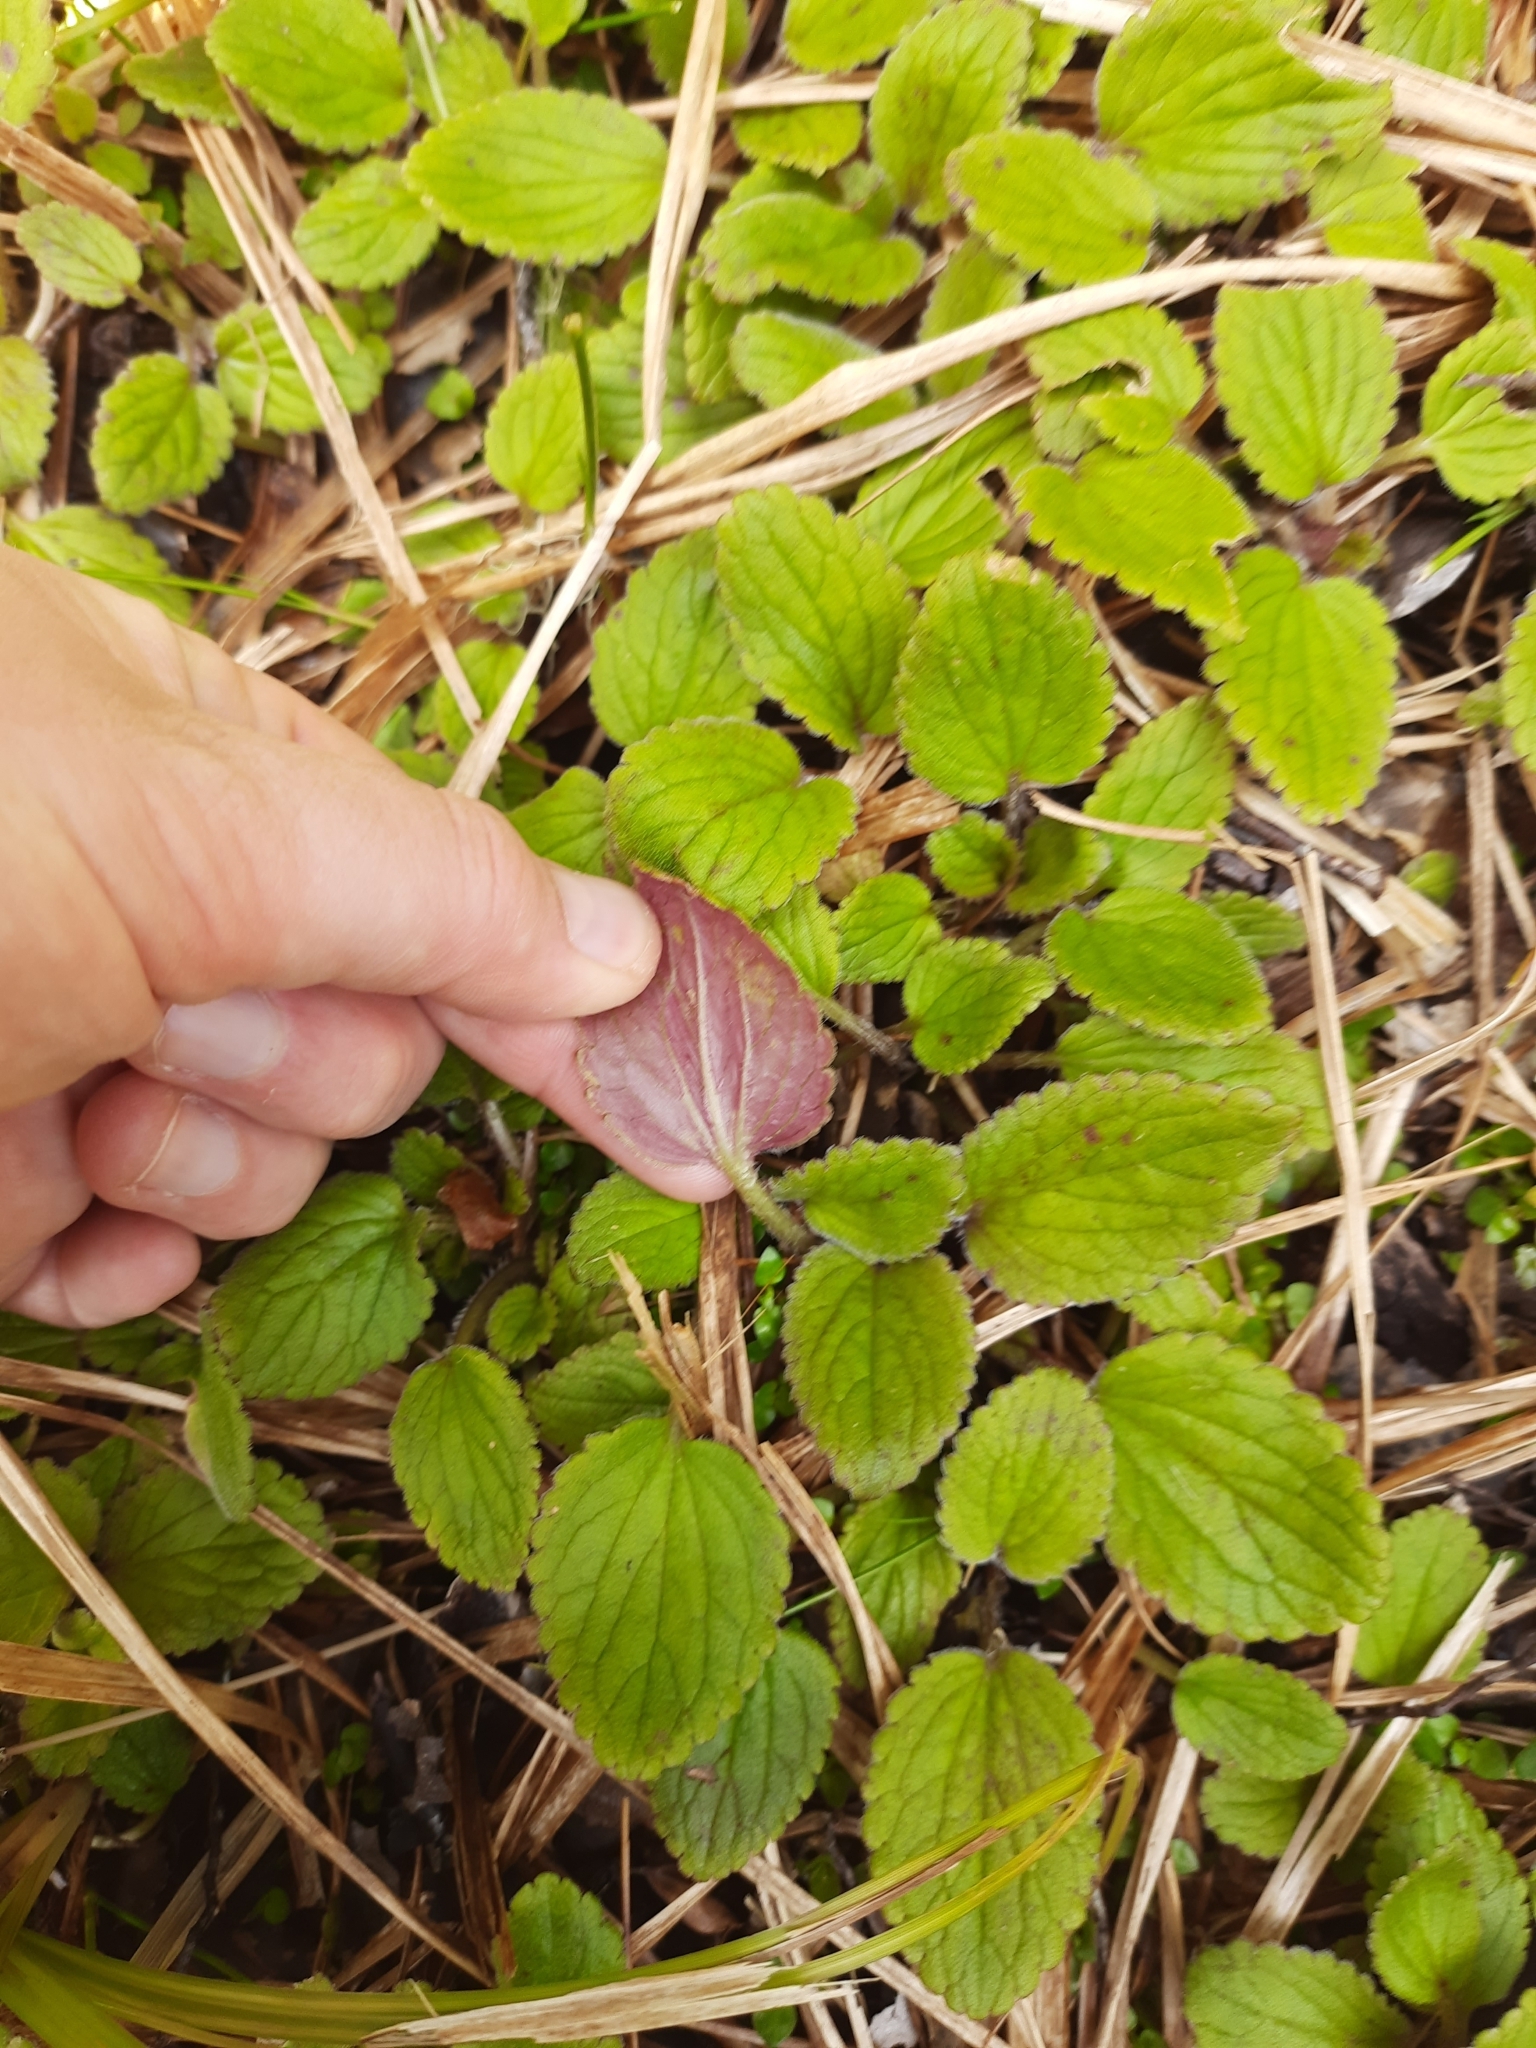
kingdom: Plantae
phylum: Tracheophyta
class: Magnoliopsida
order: Lamiales
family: Plantaginaceae
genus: Ourisia
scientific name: Ourisia macrophylla
